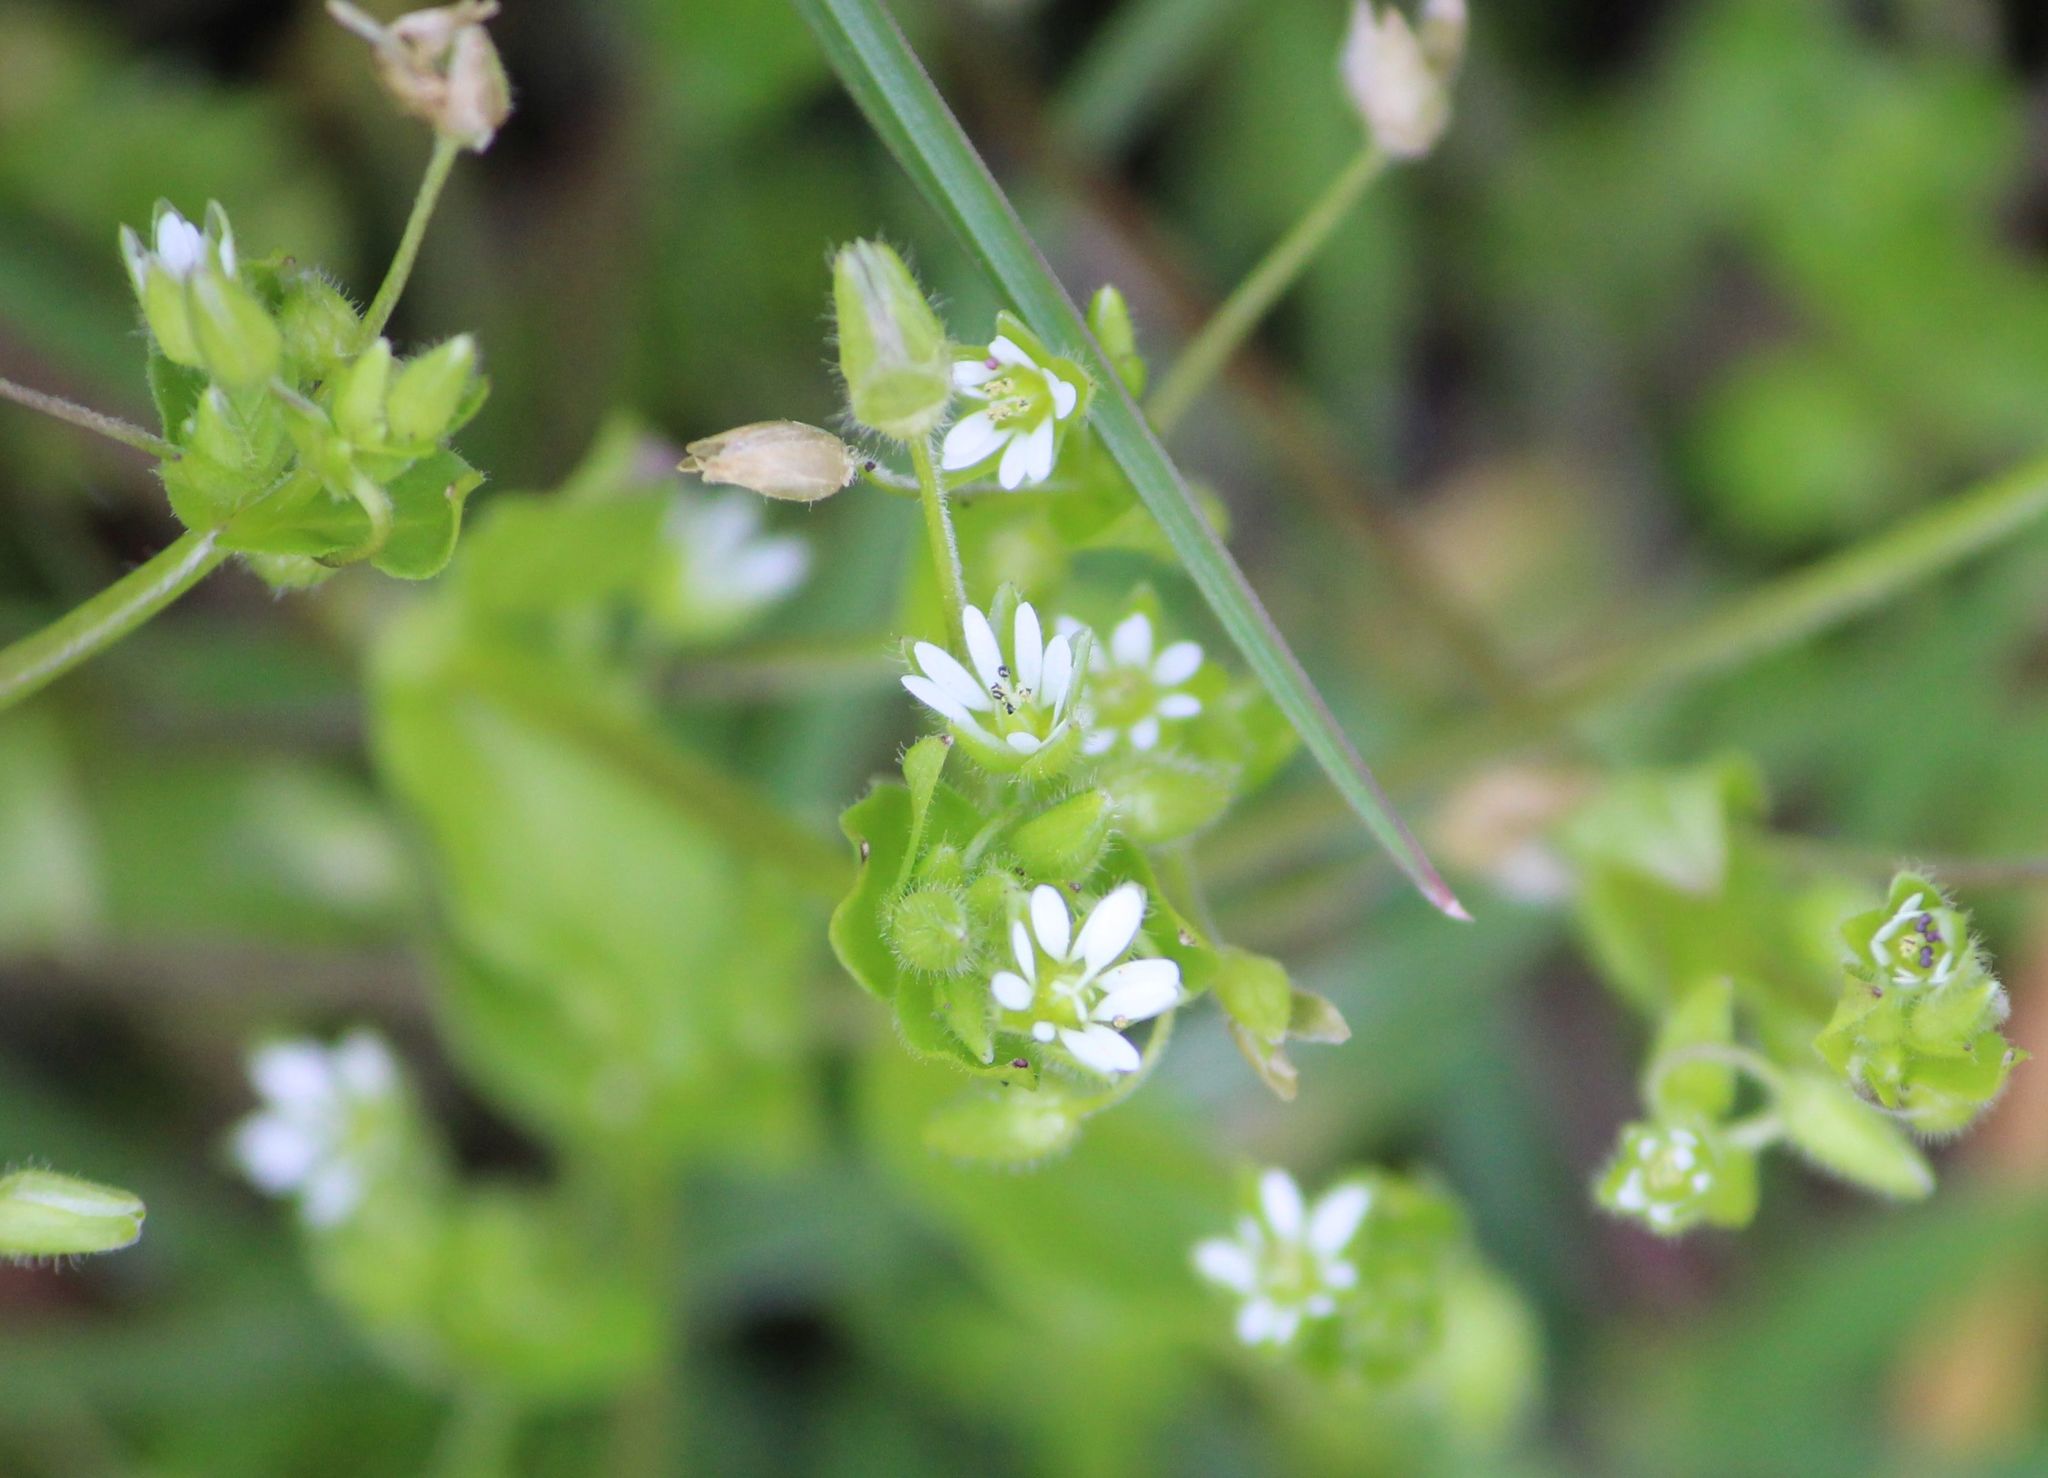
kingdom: Plantae
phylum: Tracheophyta
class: Magnoliopsida
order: Caryophyllales
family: Caryophyllaceae
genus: Stellaria
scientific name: Stellaria media
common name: Common chickweed
